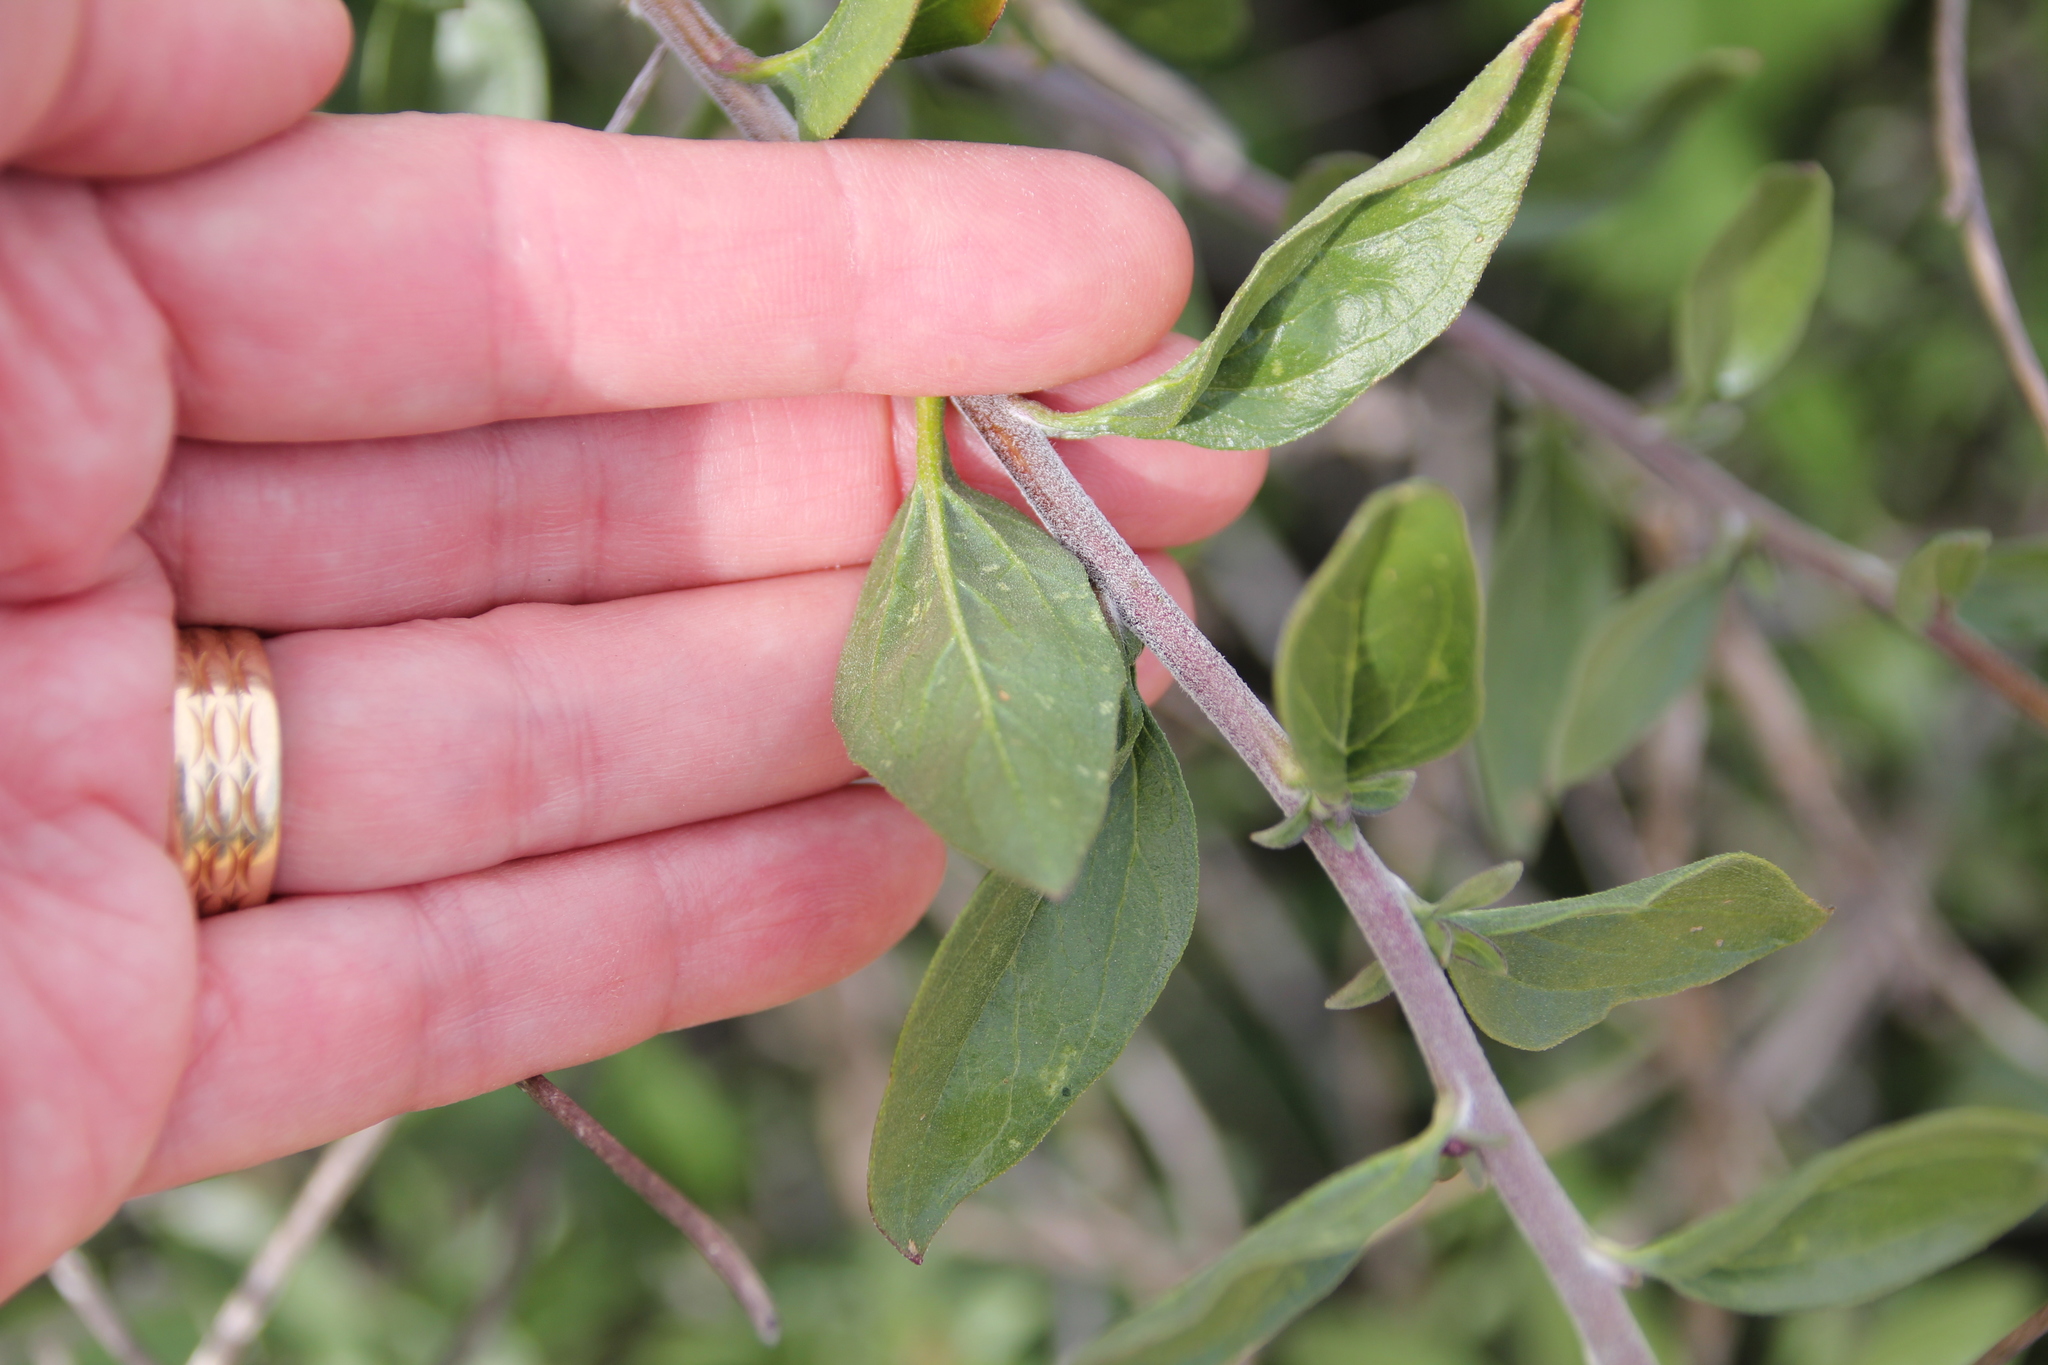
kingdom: Plantae
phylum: Tracheophyta
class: Magnoliopsida
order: Asterales
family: Asteraceae
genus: Encelia
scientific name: Encelia californica
